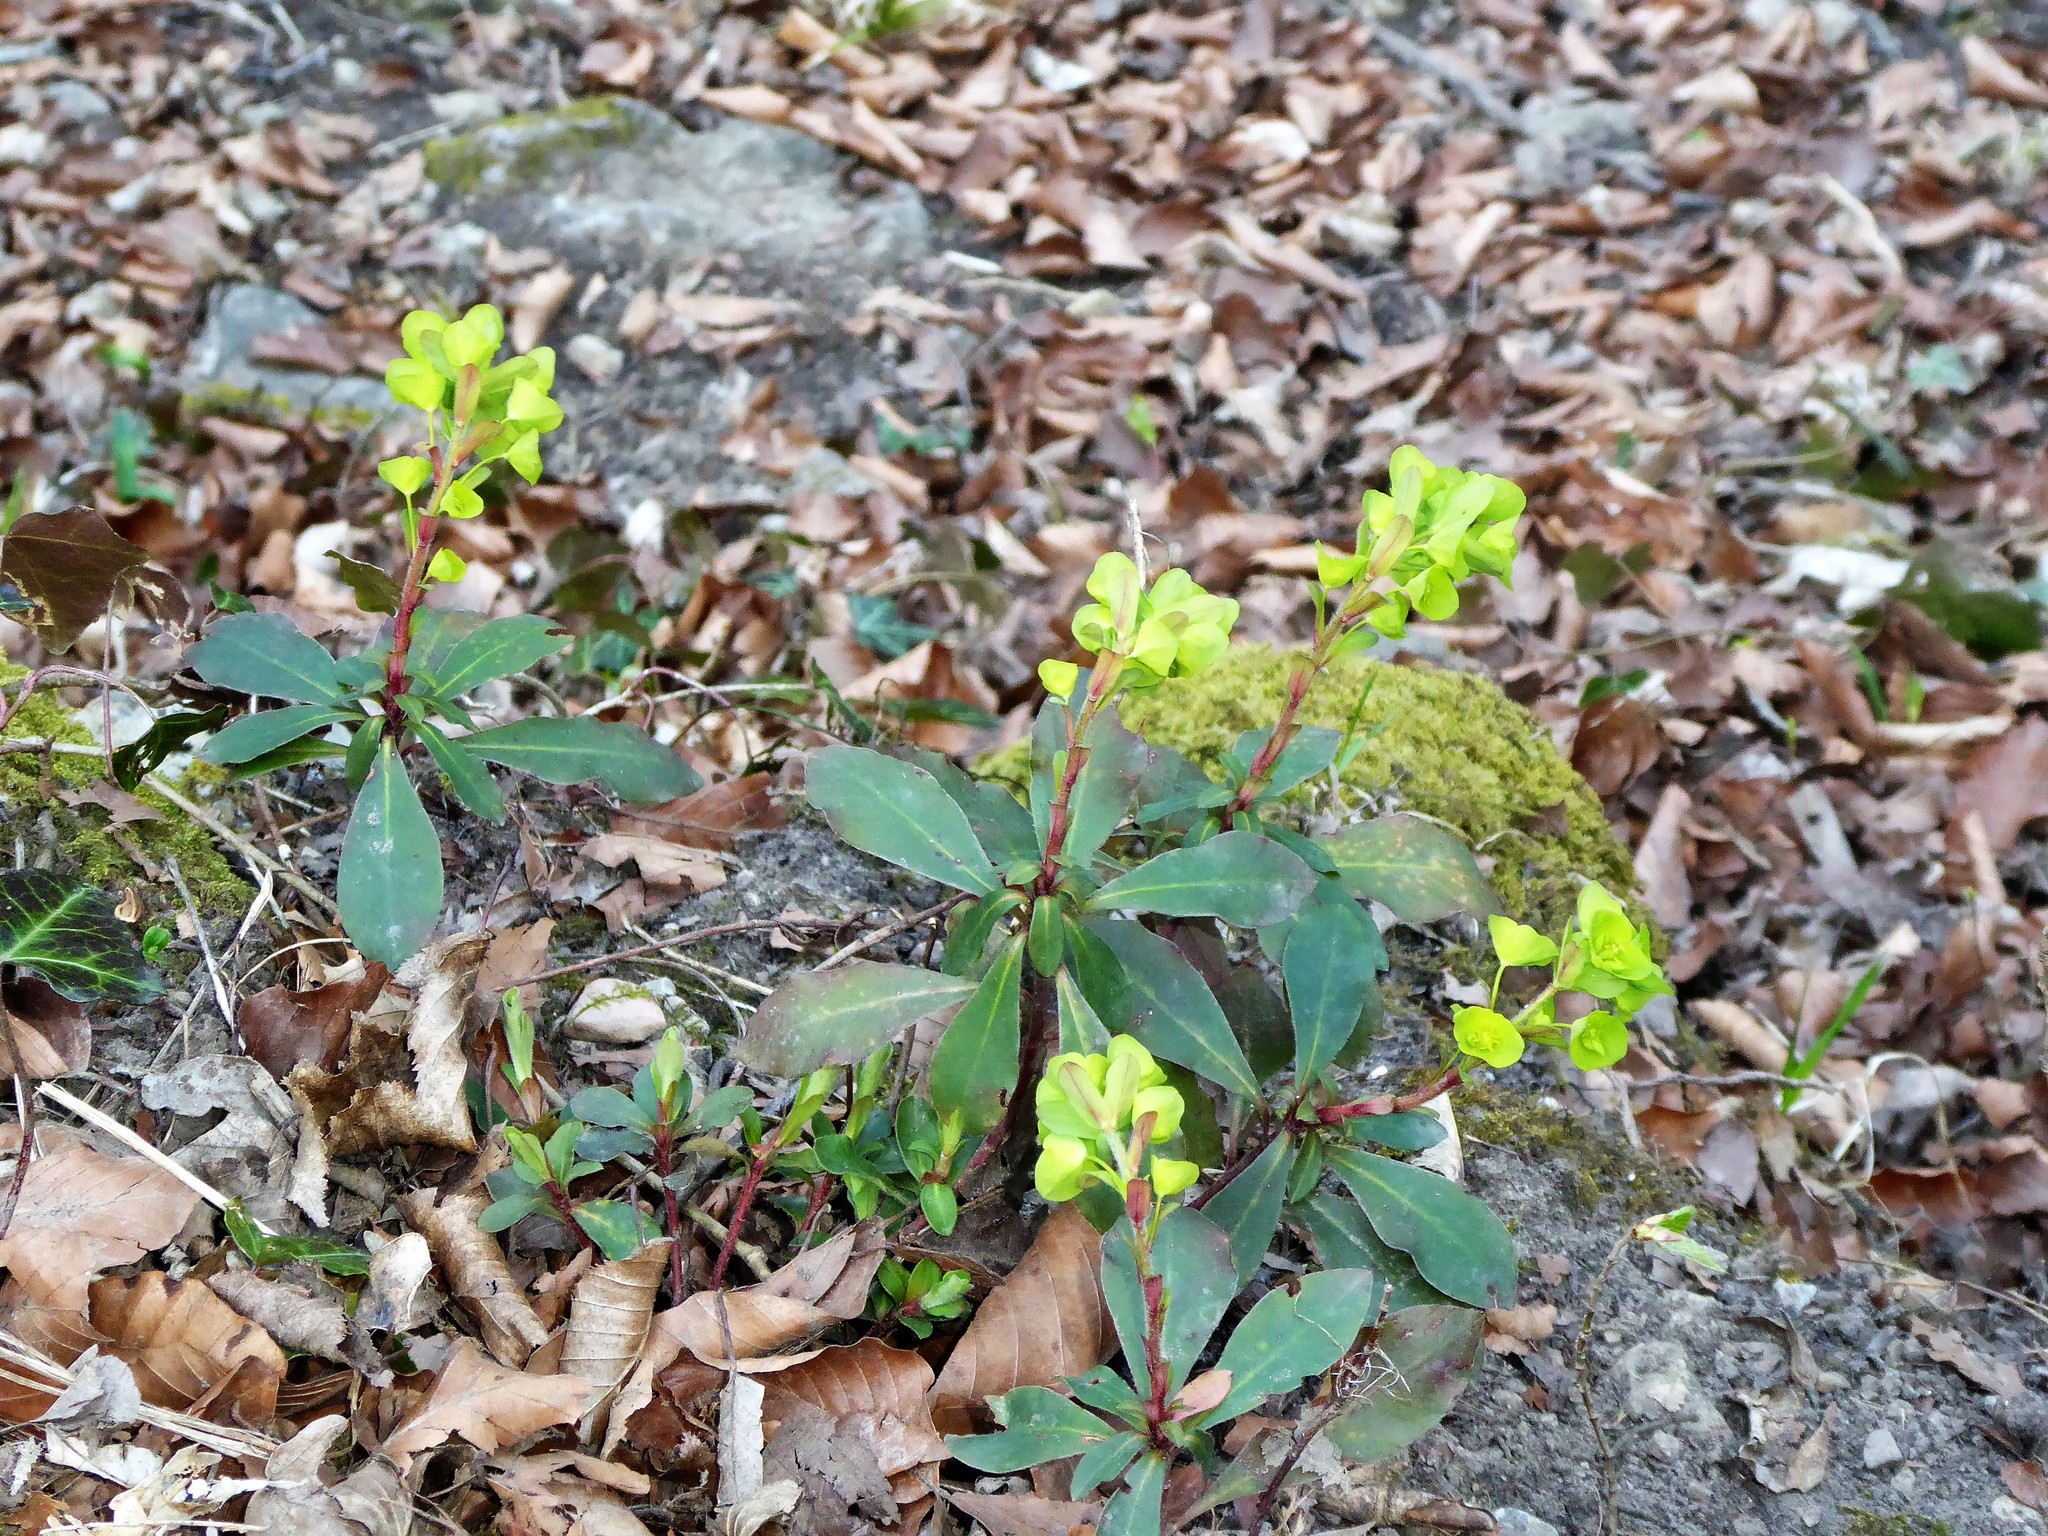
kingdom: Plantae
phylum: Tracheophyta
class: Magnoliopsida
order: Malpighiales
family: Euphorbiaceae
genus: Euphorbia
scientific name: Euphorbia amygdaloides
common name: Wood spurge
